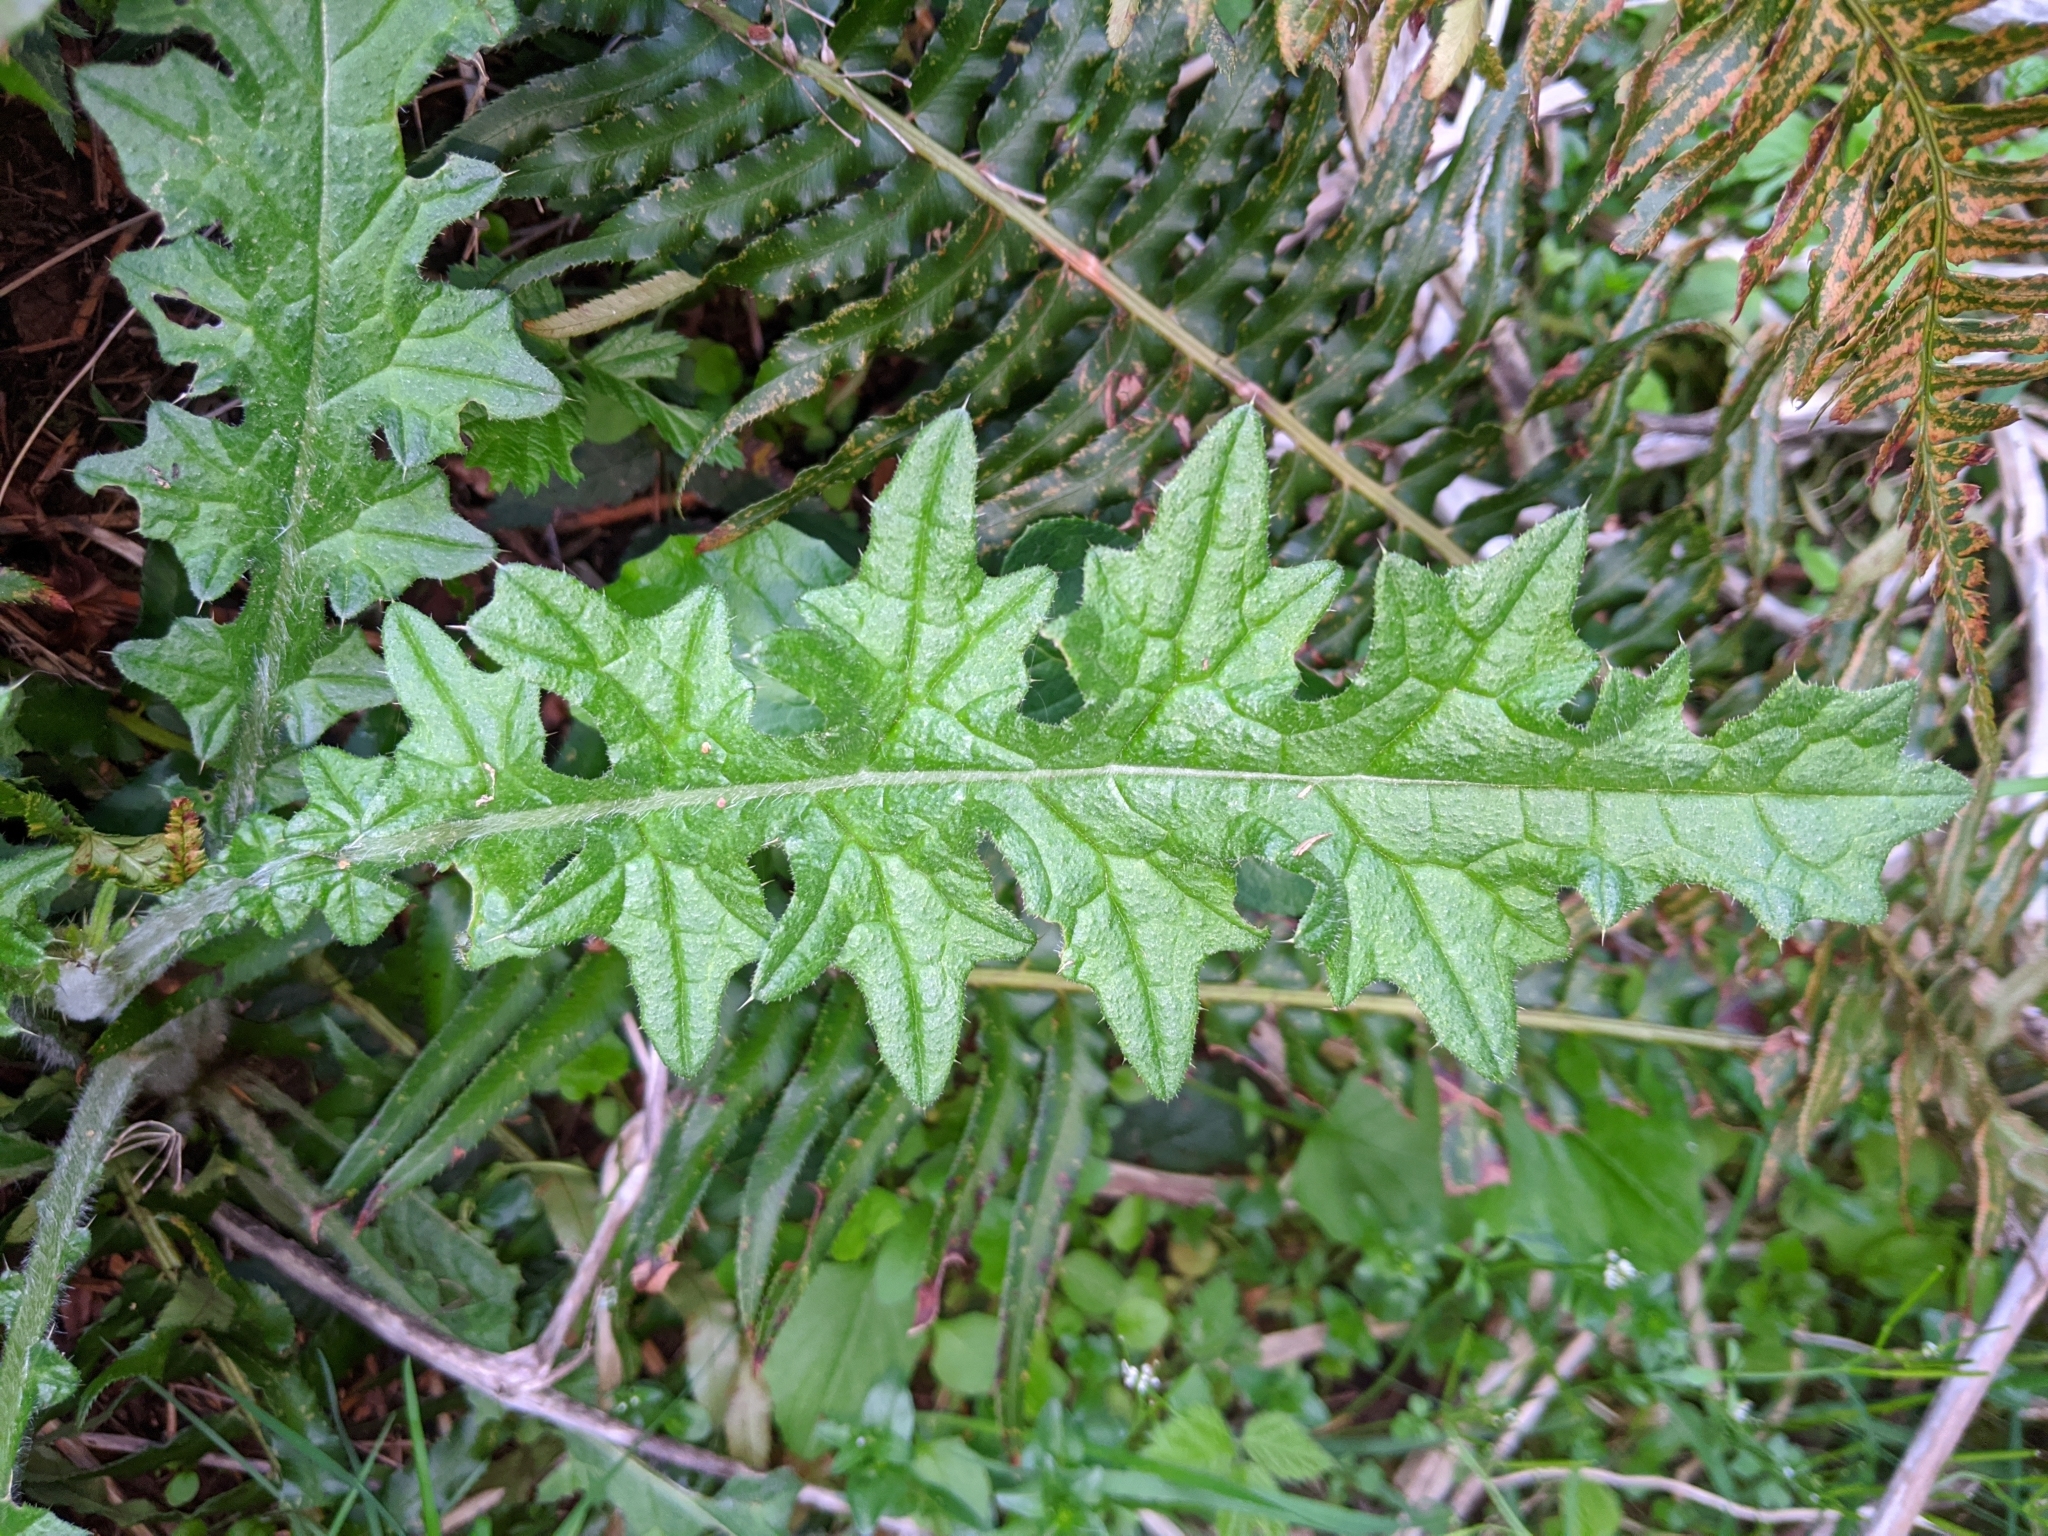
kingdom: Plantae
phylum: Tracheophyta
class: Magnoliopsida
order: Asterales
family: Asteraceae
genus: Cirsium
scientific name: Cirsium edule
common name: Indian thistle
